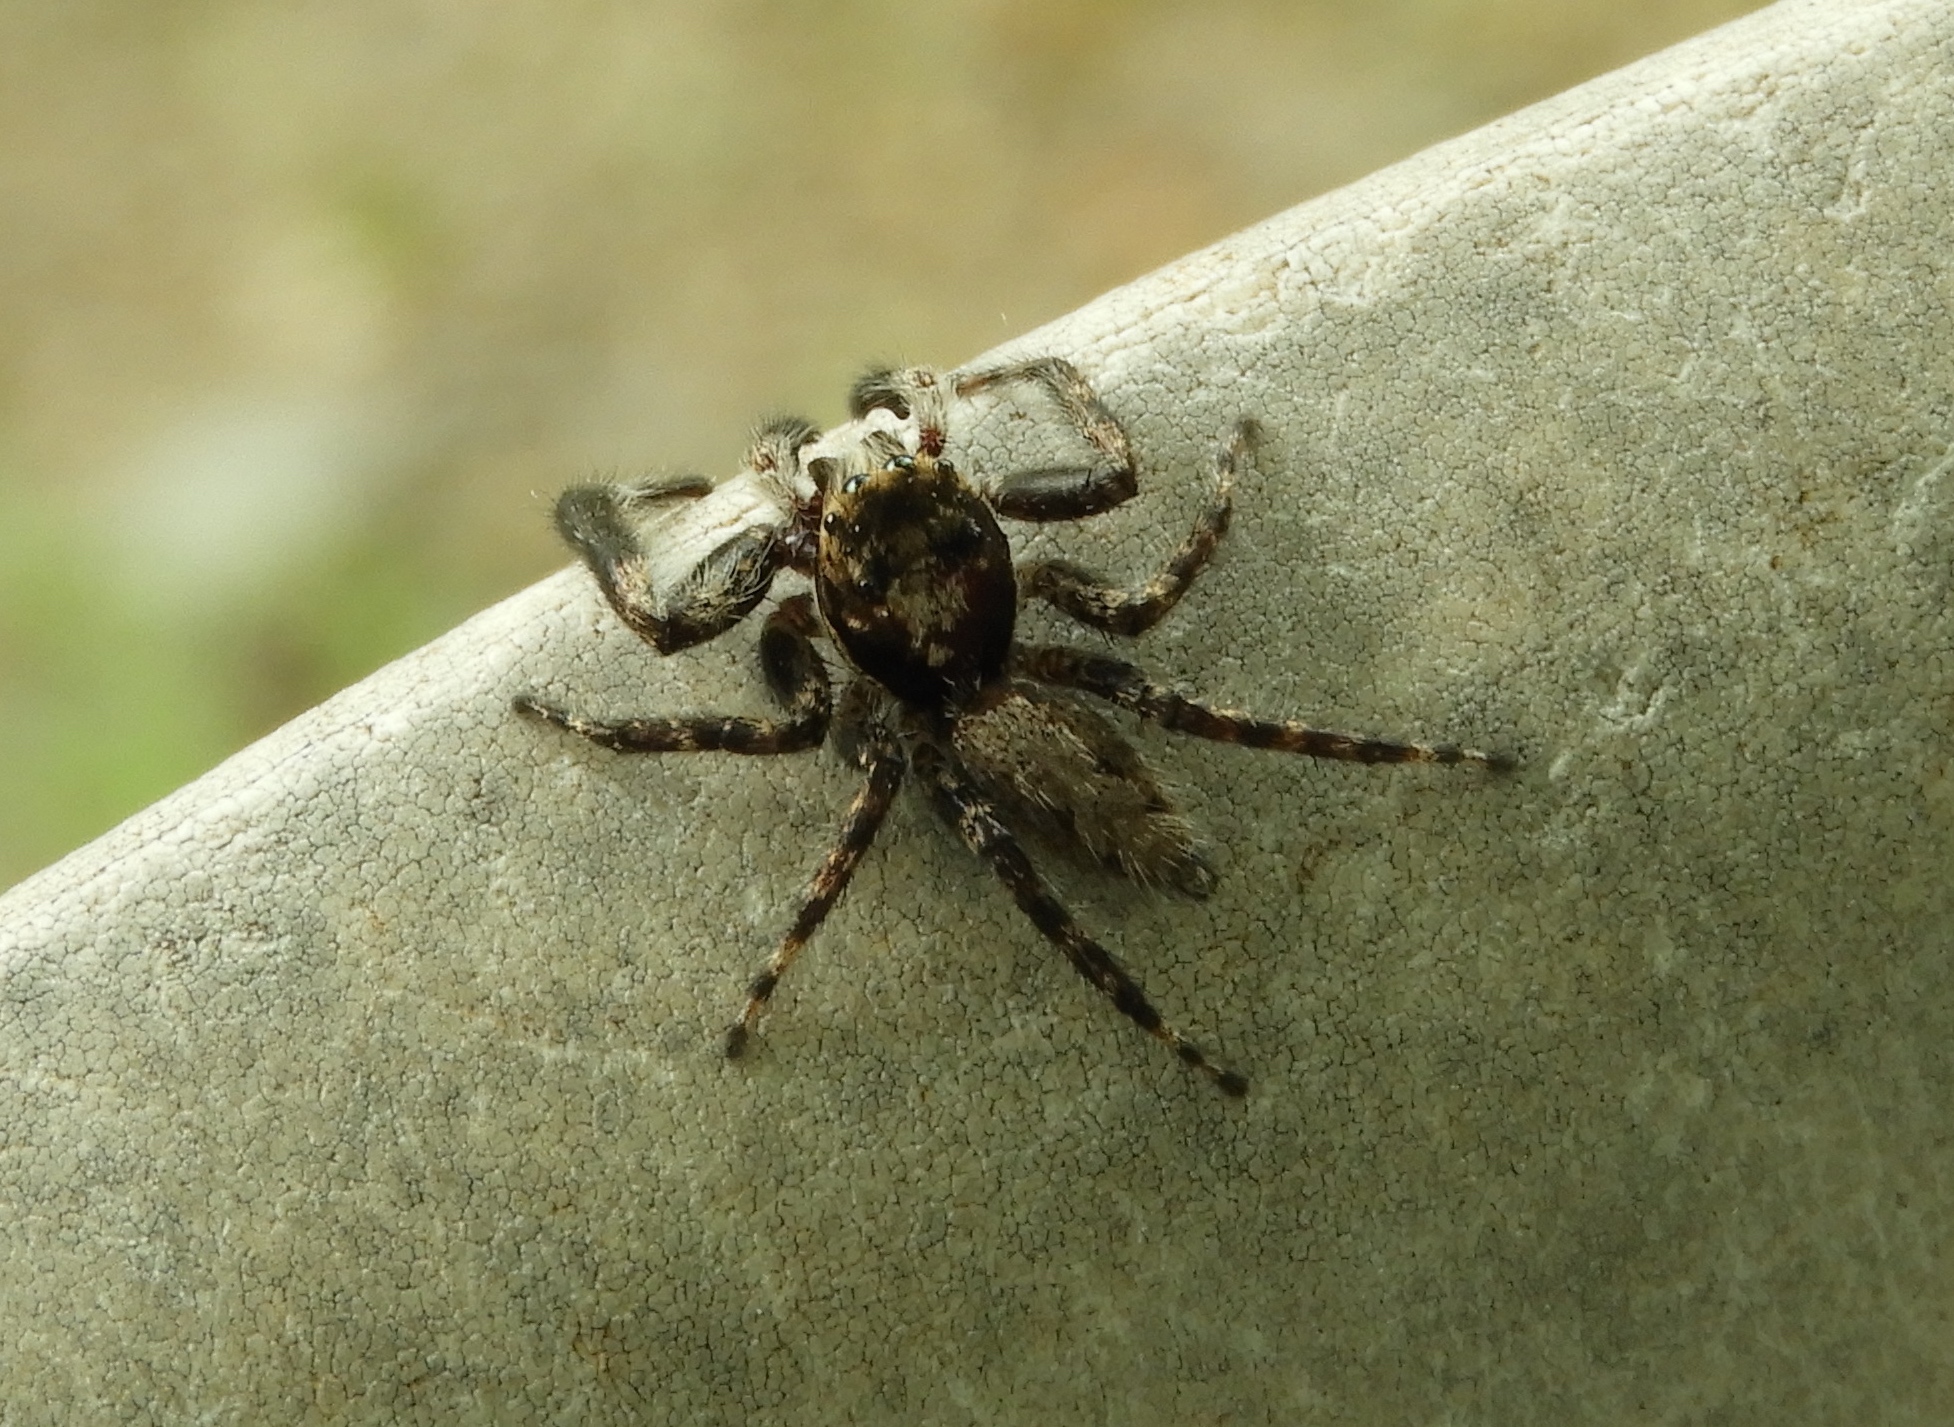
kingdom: Animalia
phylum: Arthropoda
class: Arachnida
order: Araneae
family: Salticidae
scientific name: Salticidae
